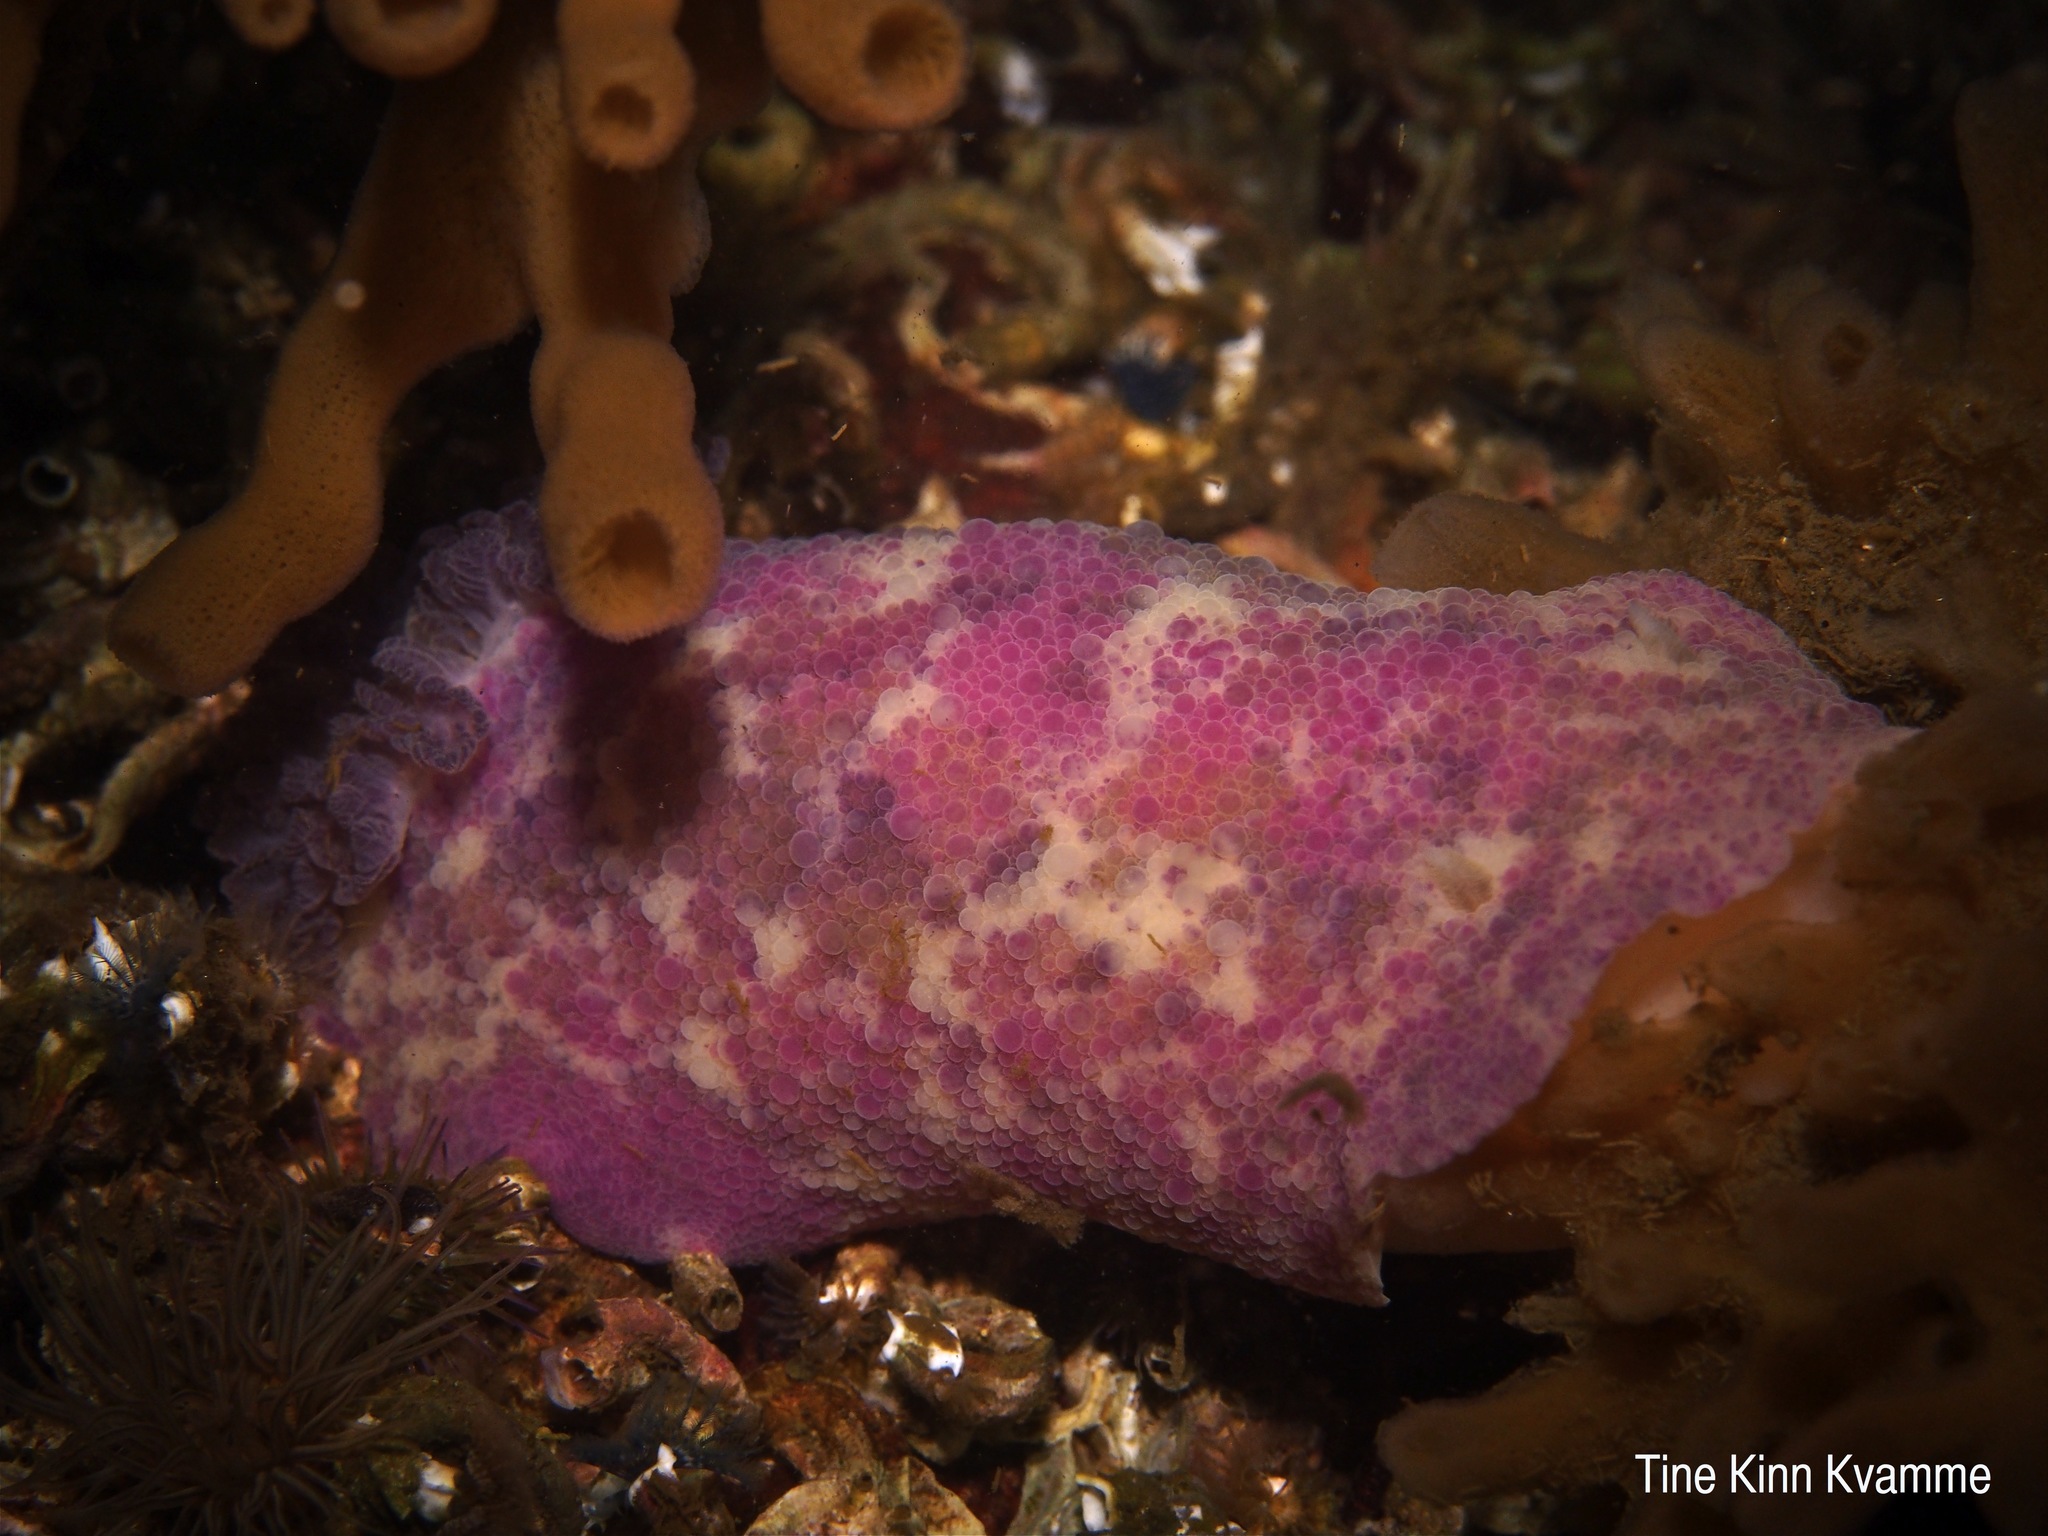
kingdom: Animalia
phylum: Mollusca
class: Gastropoda
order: Nudibranchia
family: Dorididae
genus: Doris
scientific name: Doris pseudoargus
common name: Sea lemon
